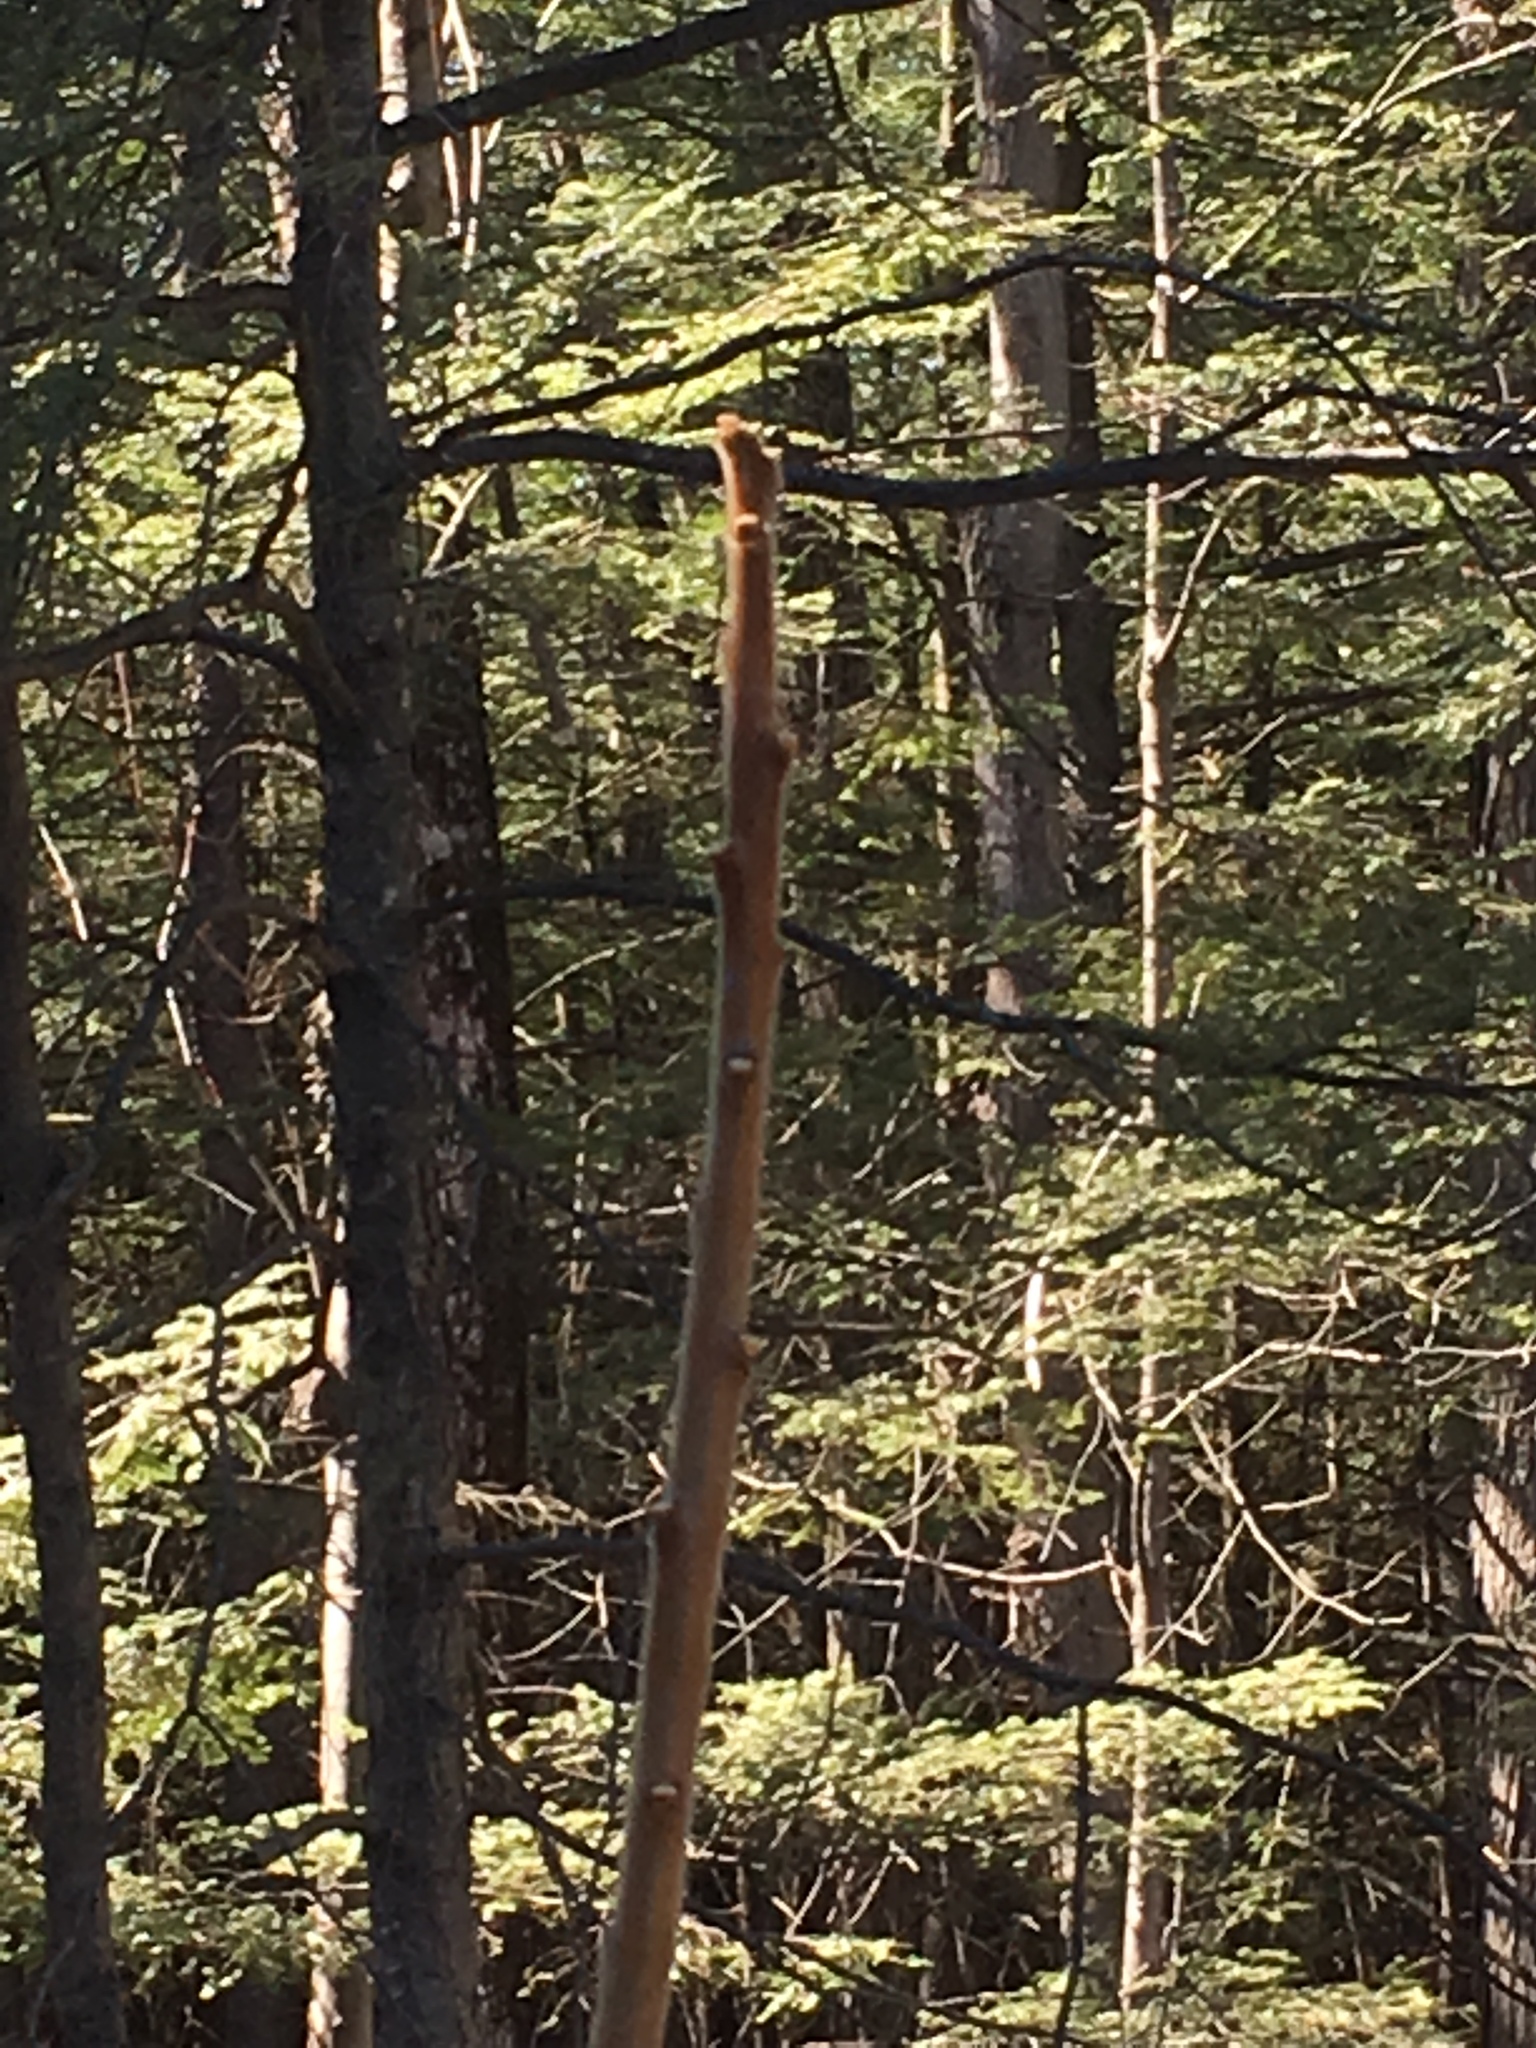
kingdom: Plantae
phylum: Tracheophyta
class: Magnoliopsida
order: Sapindales
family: Anacardiaceae
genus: Rhus
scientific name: Rhus typhina
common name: Staghorn sumac
